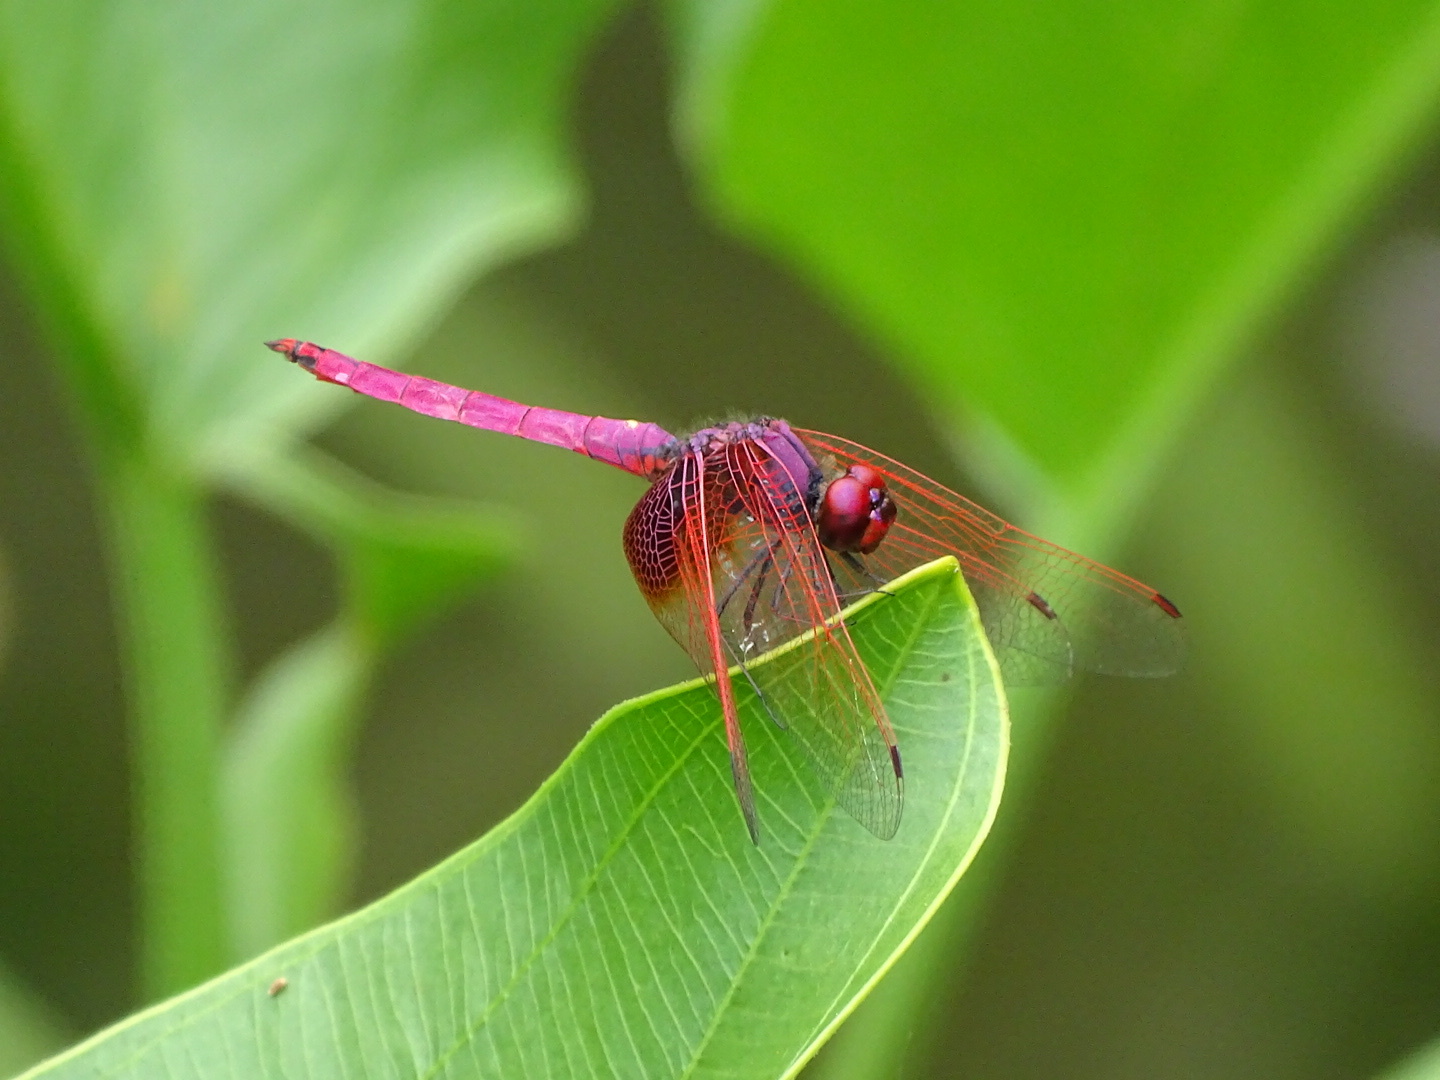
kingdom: Animalia
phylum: Arthropoda
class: Insecta
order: Odonata
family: Libellulidae
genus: Trithemis
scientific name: Trithemis aurora
